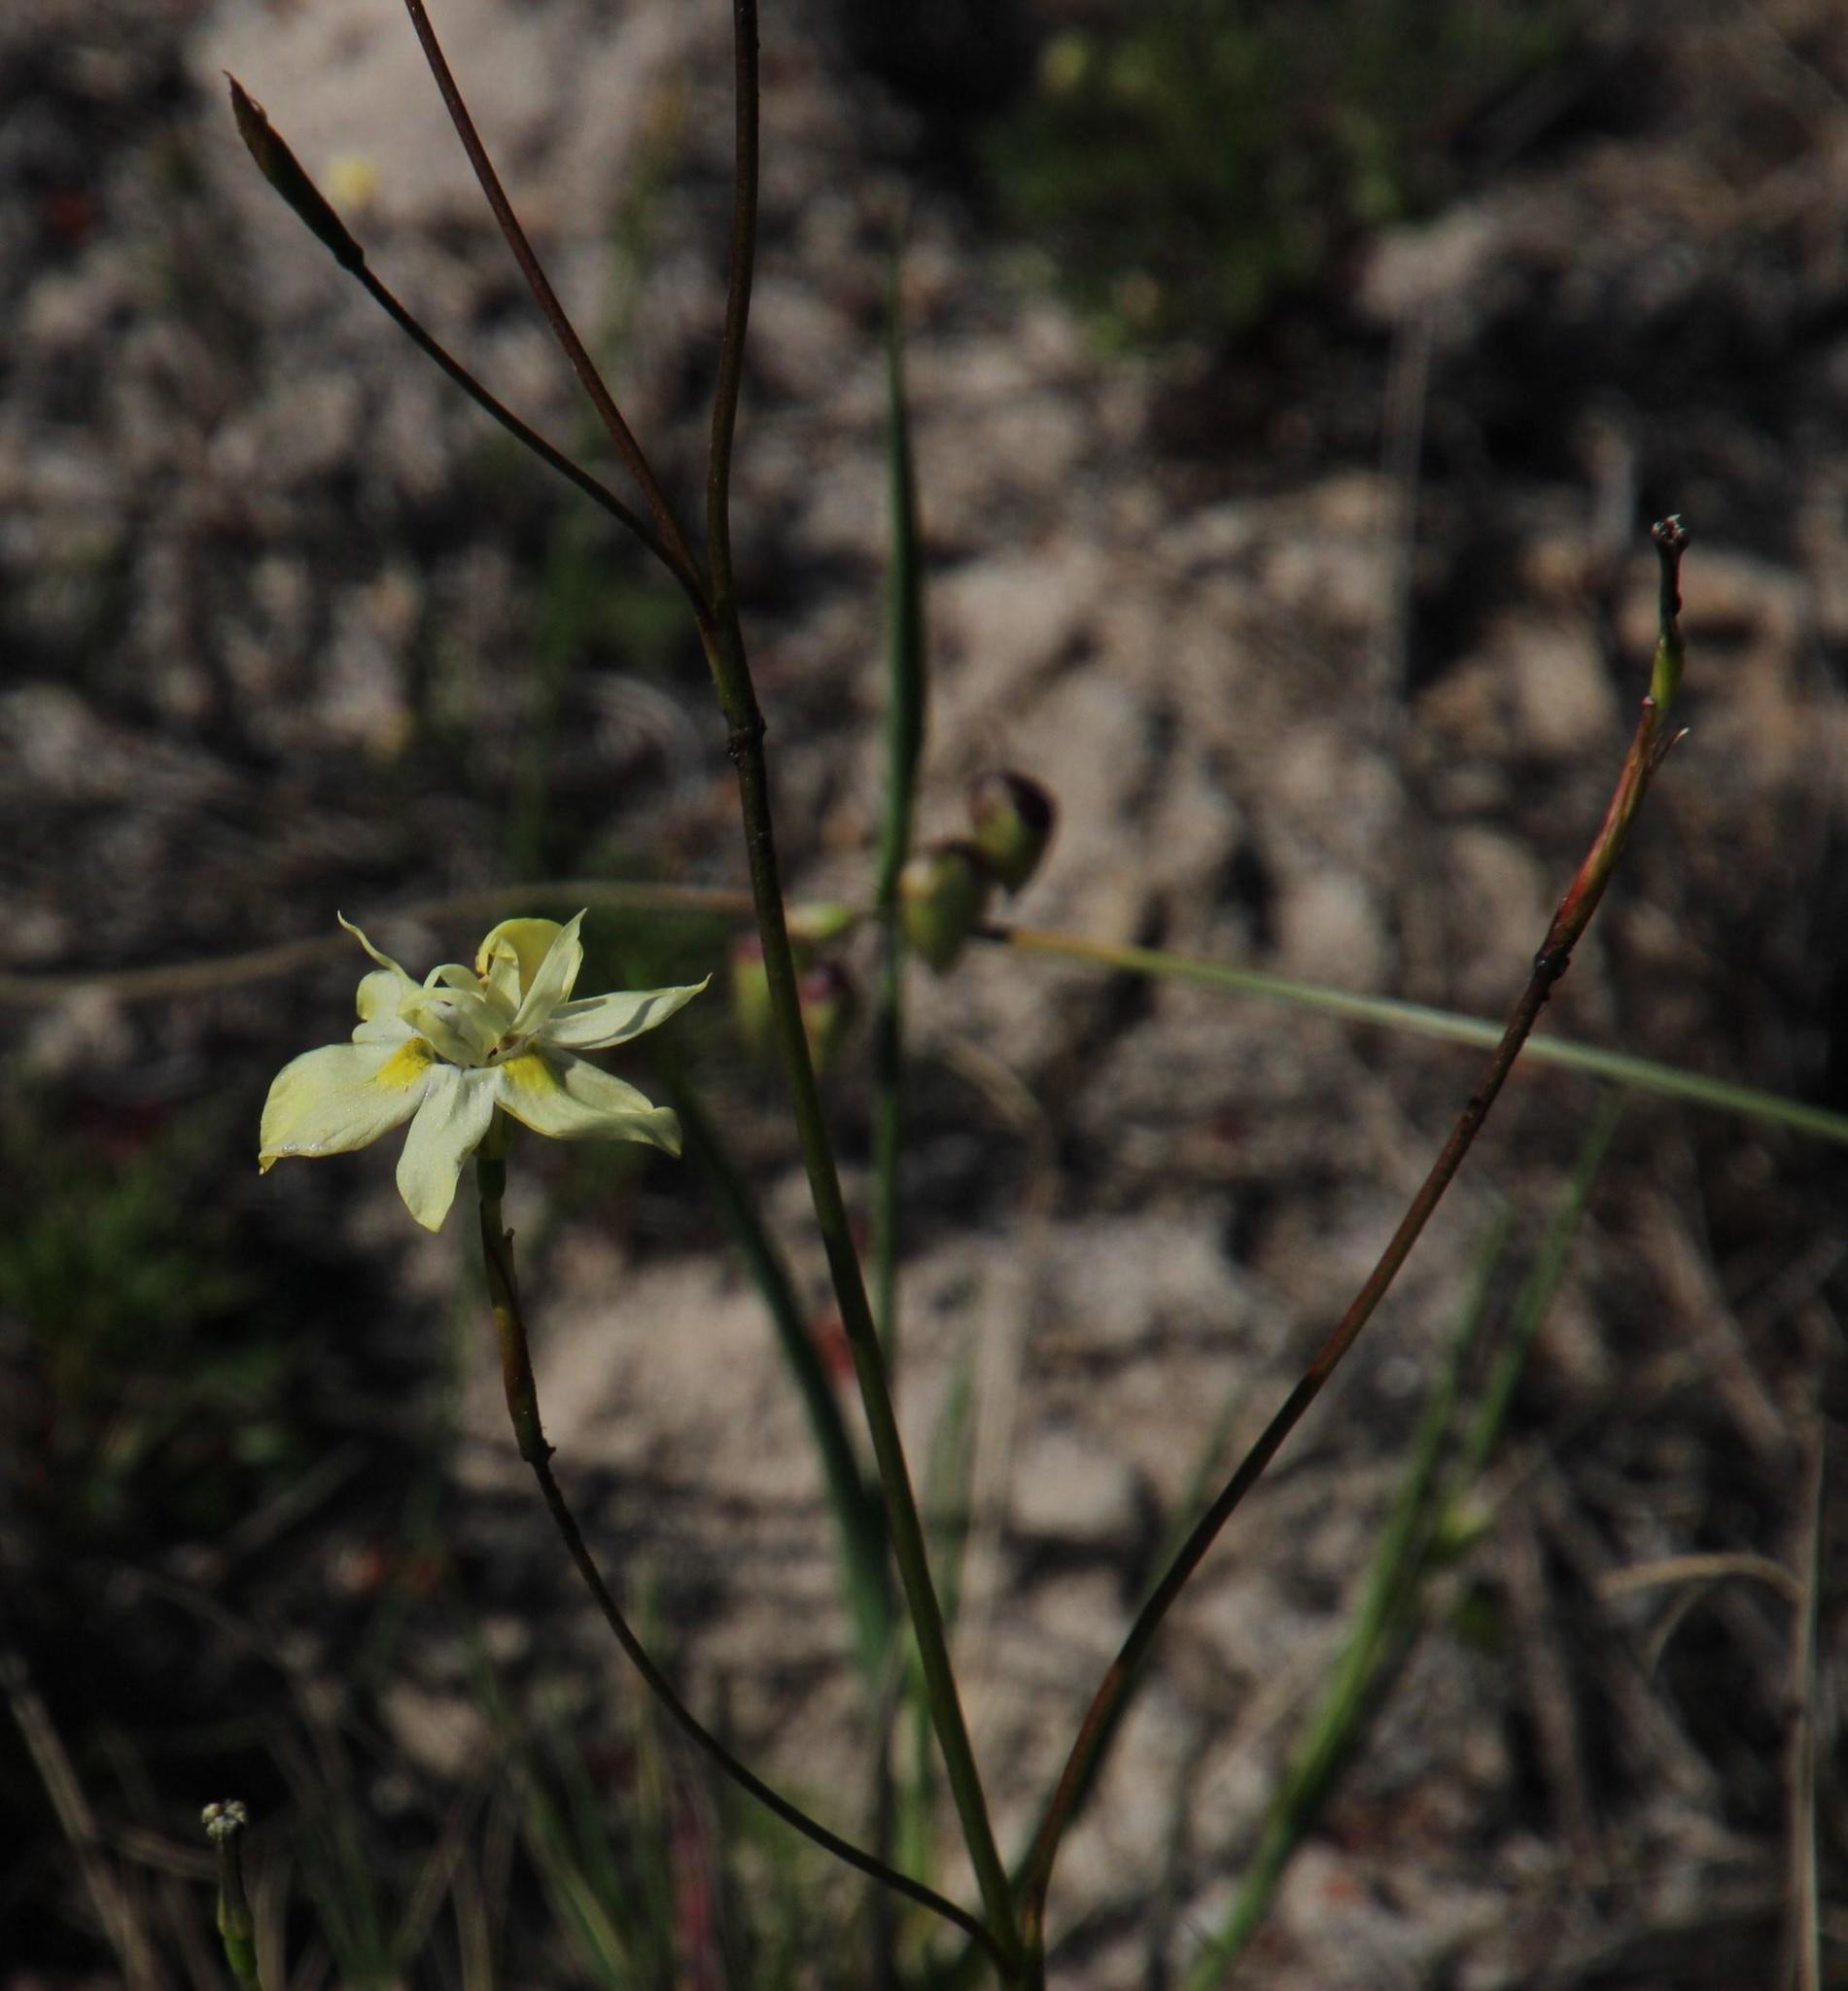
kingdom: Plantae
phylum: Tracheophyta
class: Liliopsida
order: Asparagales
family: Iridaceae
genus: Moraea
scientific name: Moraea gawleri
